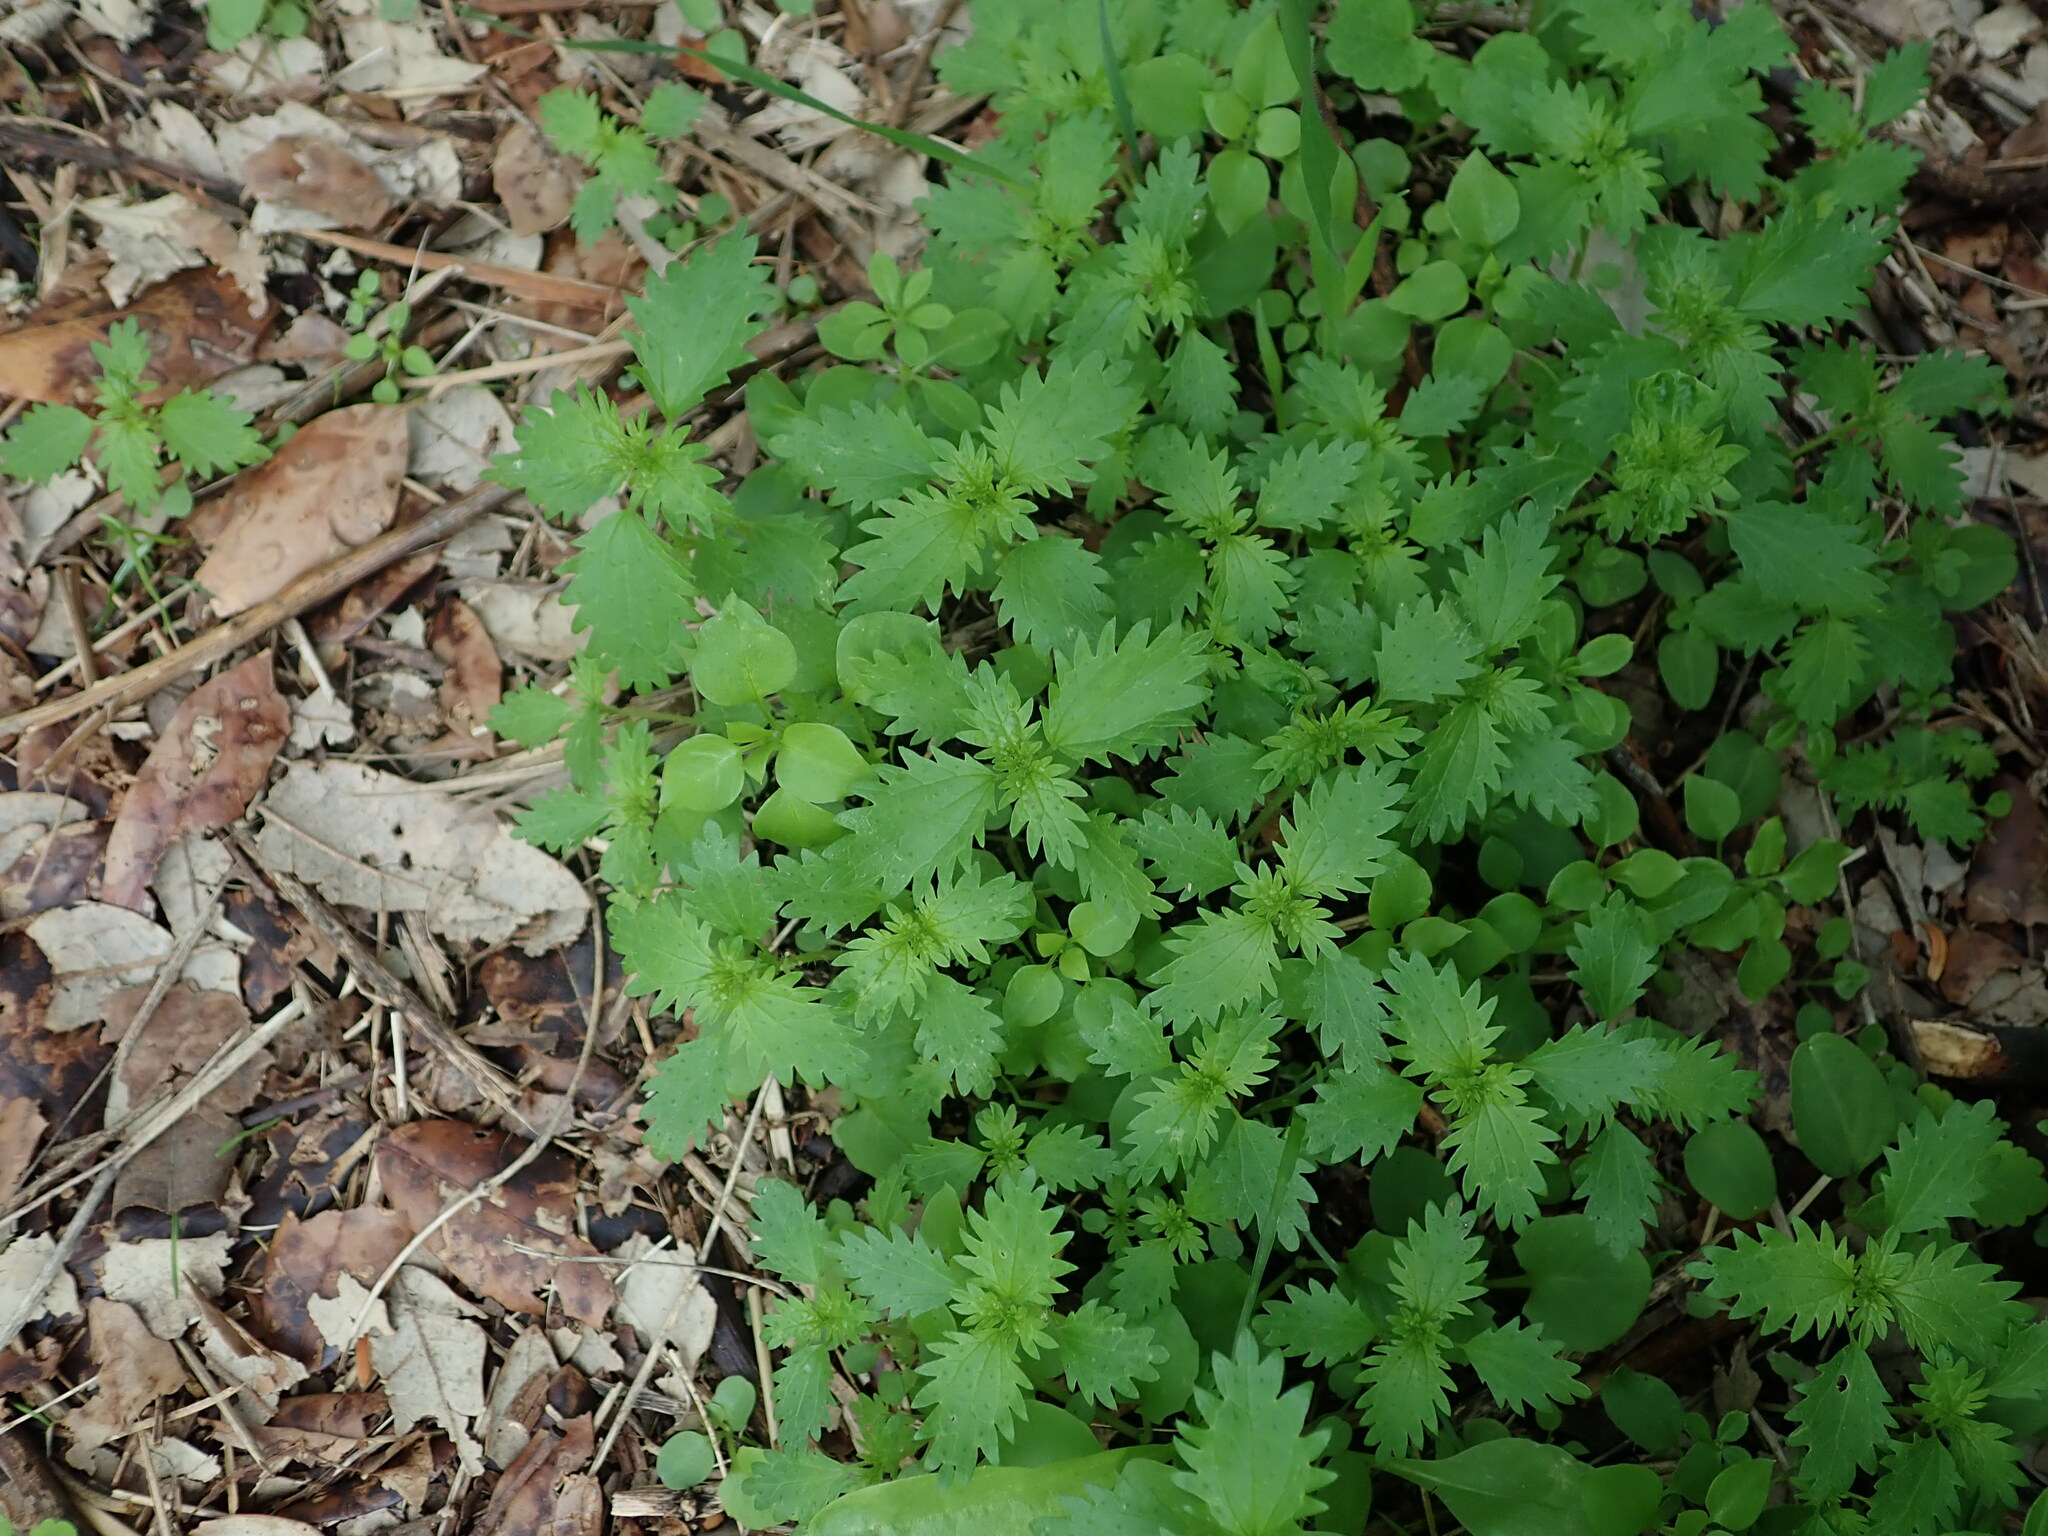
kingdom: Plantae
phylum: Tracheophyta
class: Magnoliopsida
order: Rosales
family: Urticaceae
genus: Urtica
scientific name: Urtica urens
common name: Dwarf nettle
